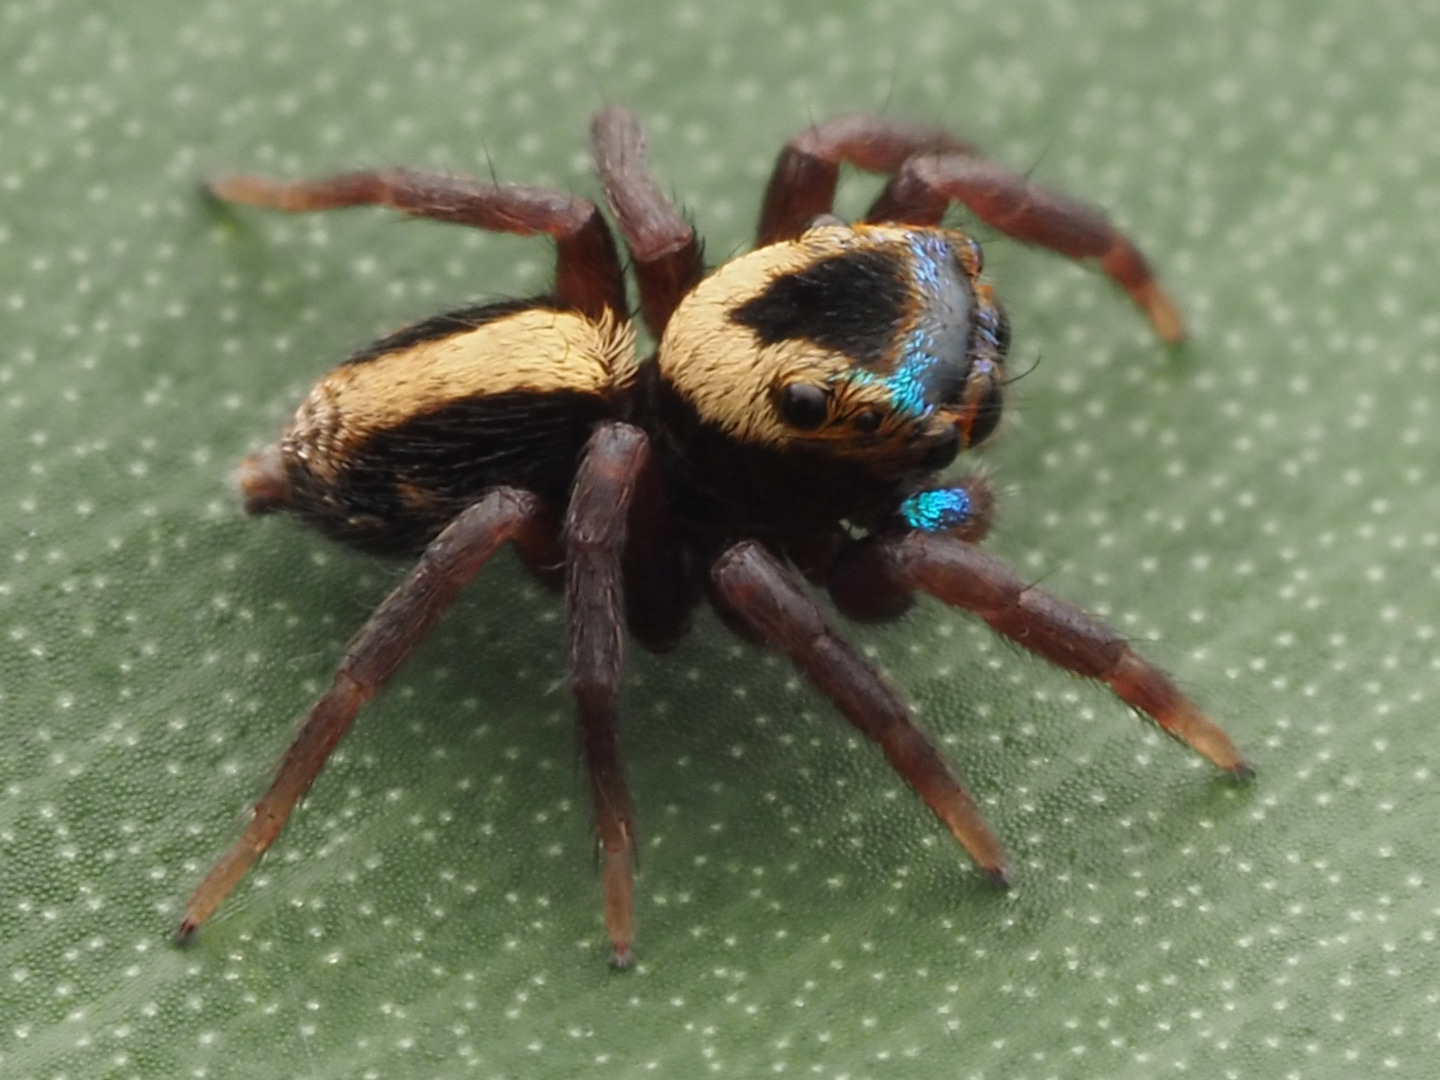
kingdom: Animalia
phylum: Arthropoda
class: Arachnida
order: Araneae
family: Salticidae
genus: Anasaitis
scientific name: Anasaitis canalis
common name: Jumping spiders
